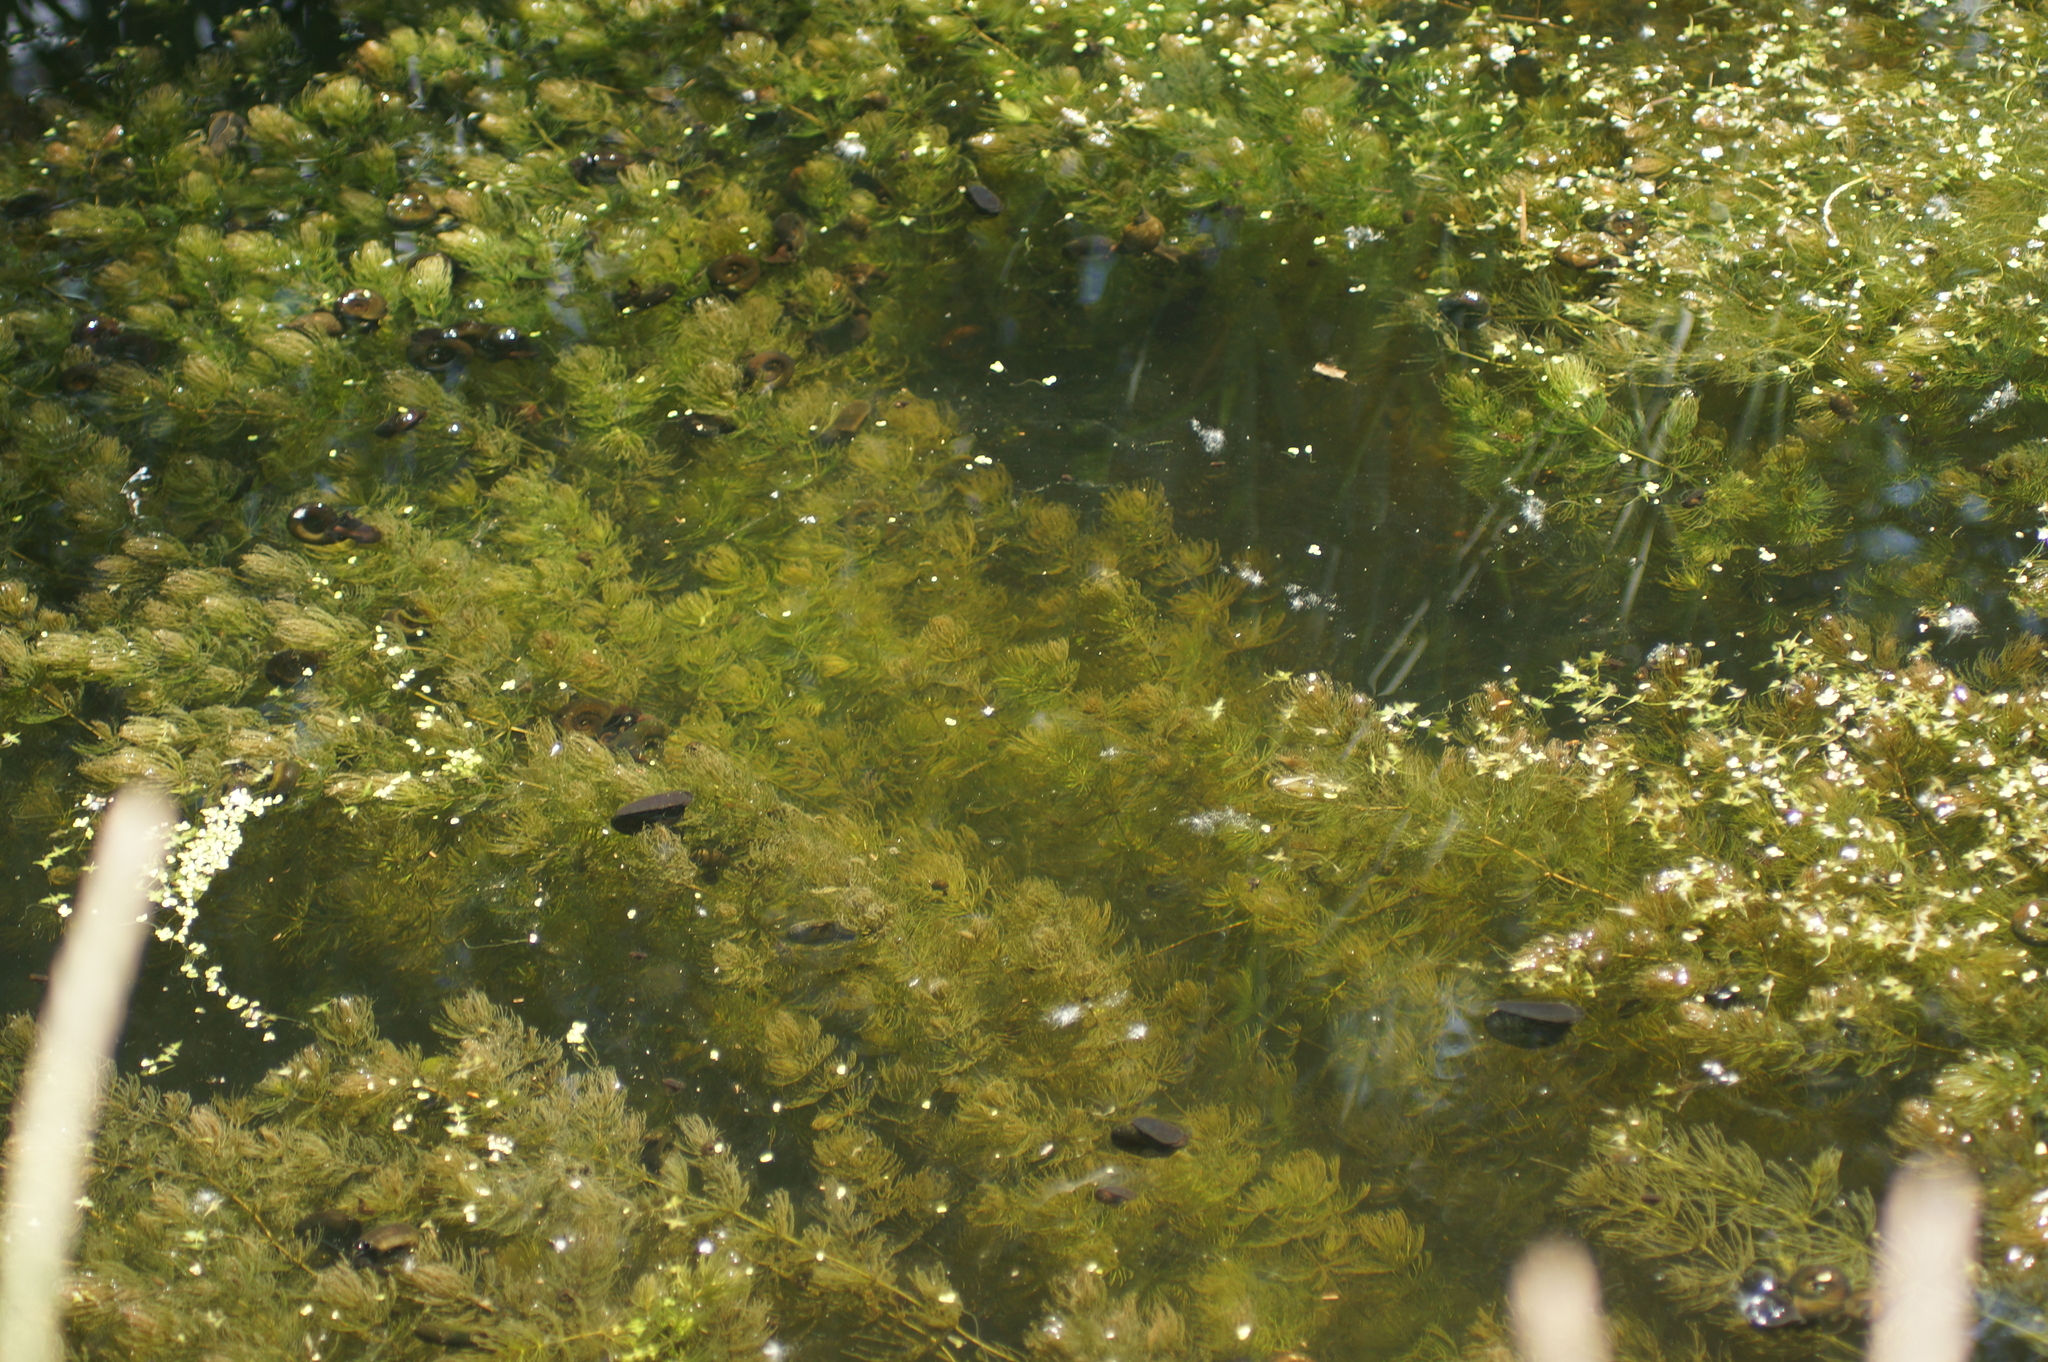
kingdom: Plantae
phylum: Tracheophyta
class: Magnoliopsida
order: Ceratophyllales
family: Ceratophyllaceae
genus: Ceratophyllum
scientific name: Ceratophyllum demersum
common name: Rigid hornwort
